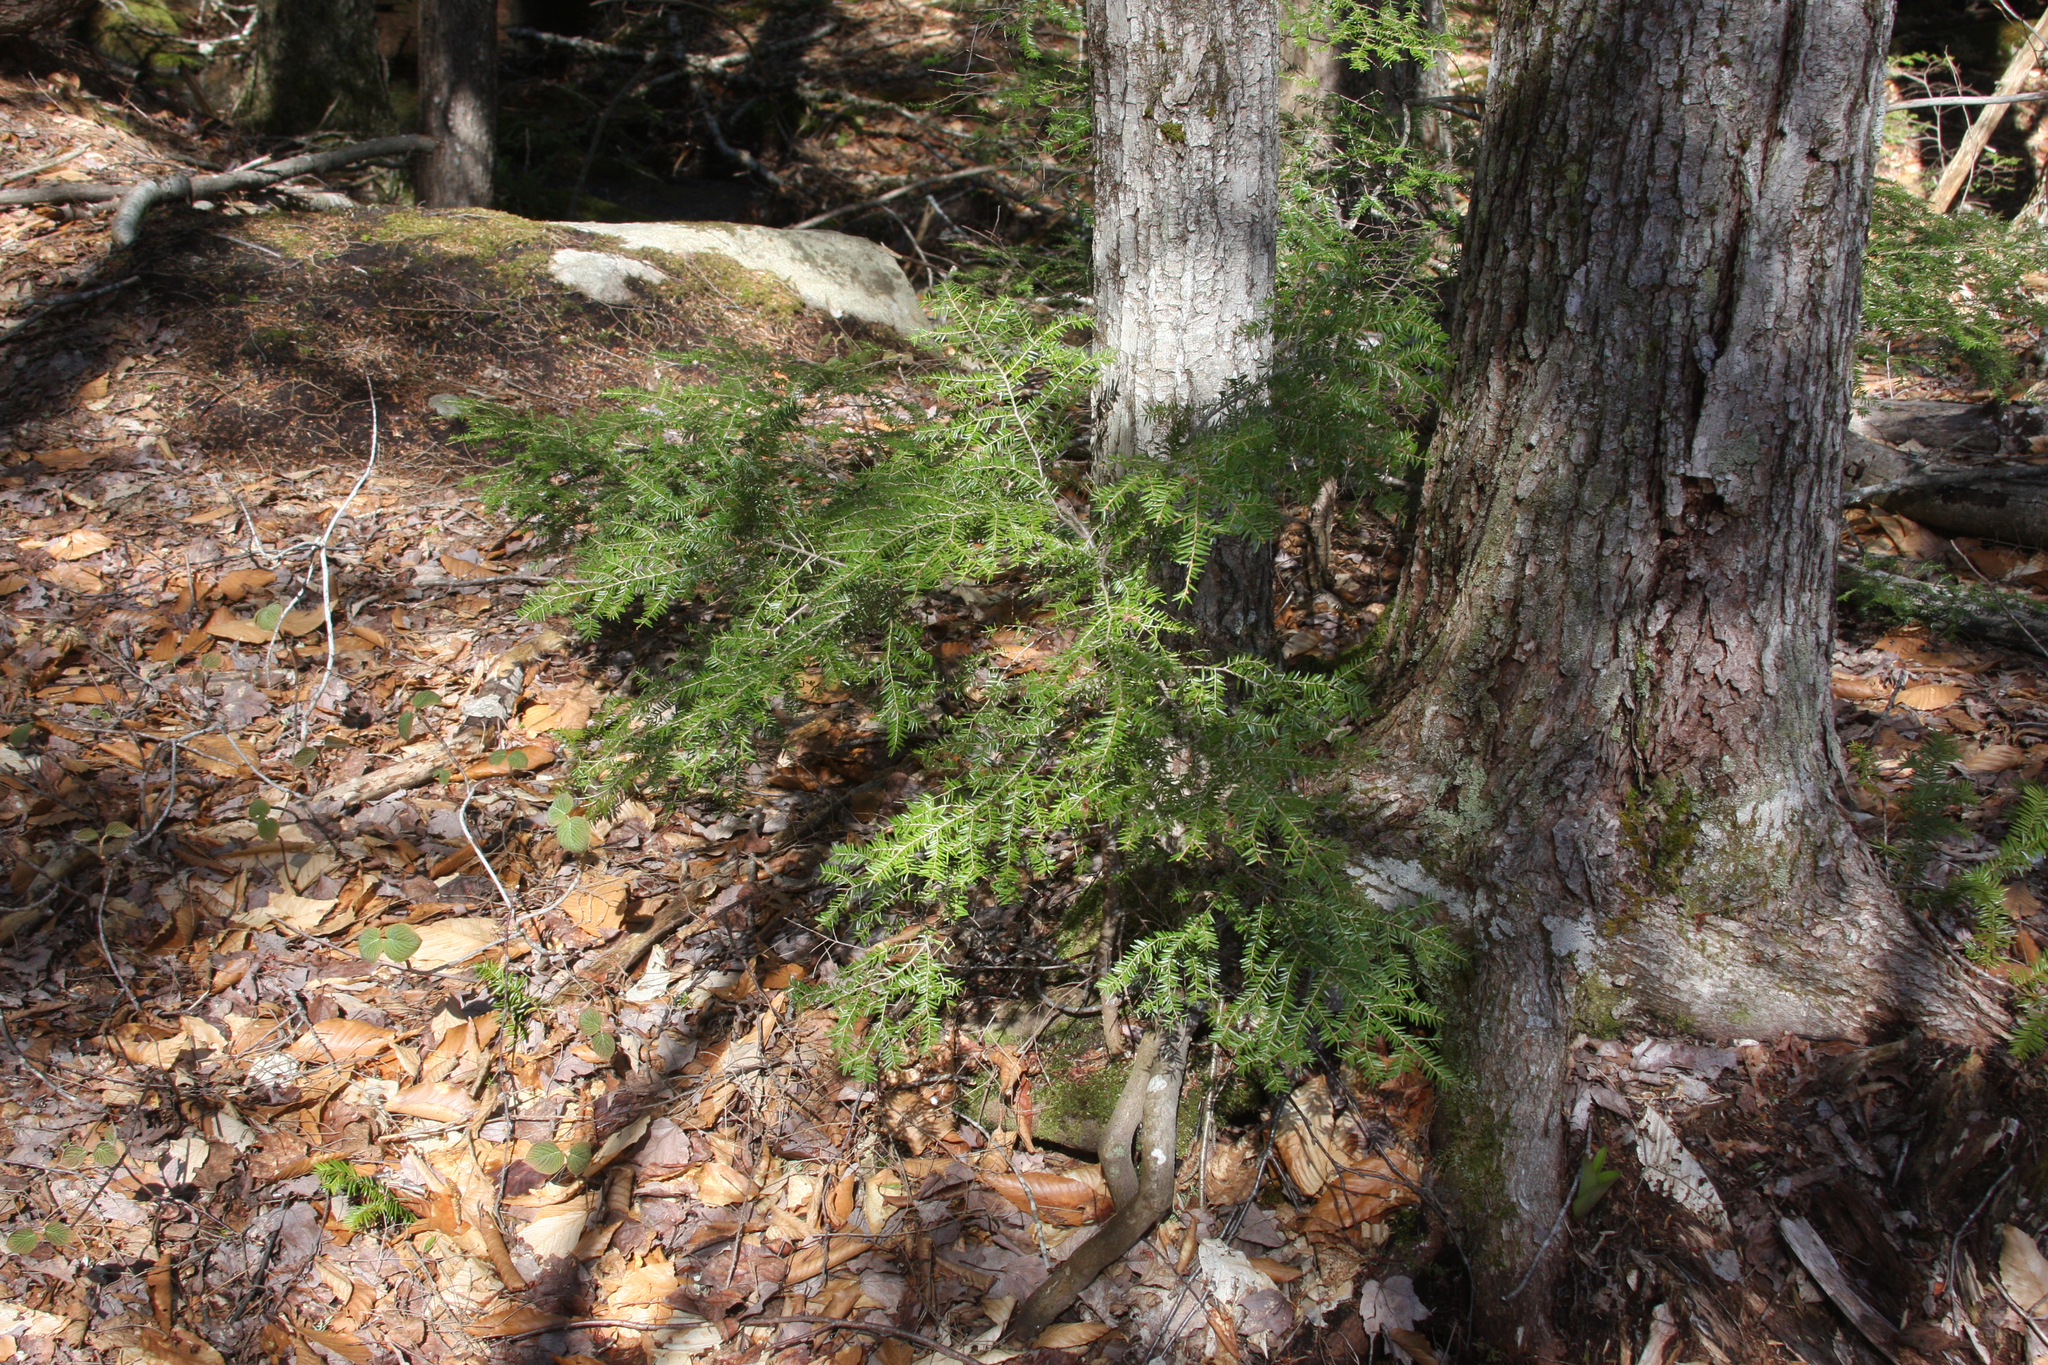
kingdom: Plantae
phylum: Tracheophyta
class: Pinopsida
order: Pinales
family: Pinaceae
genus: Tsuga
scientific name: Tsuga canadensis
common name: Eastern hemlock
